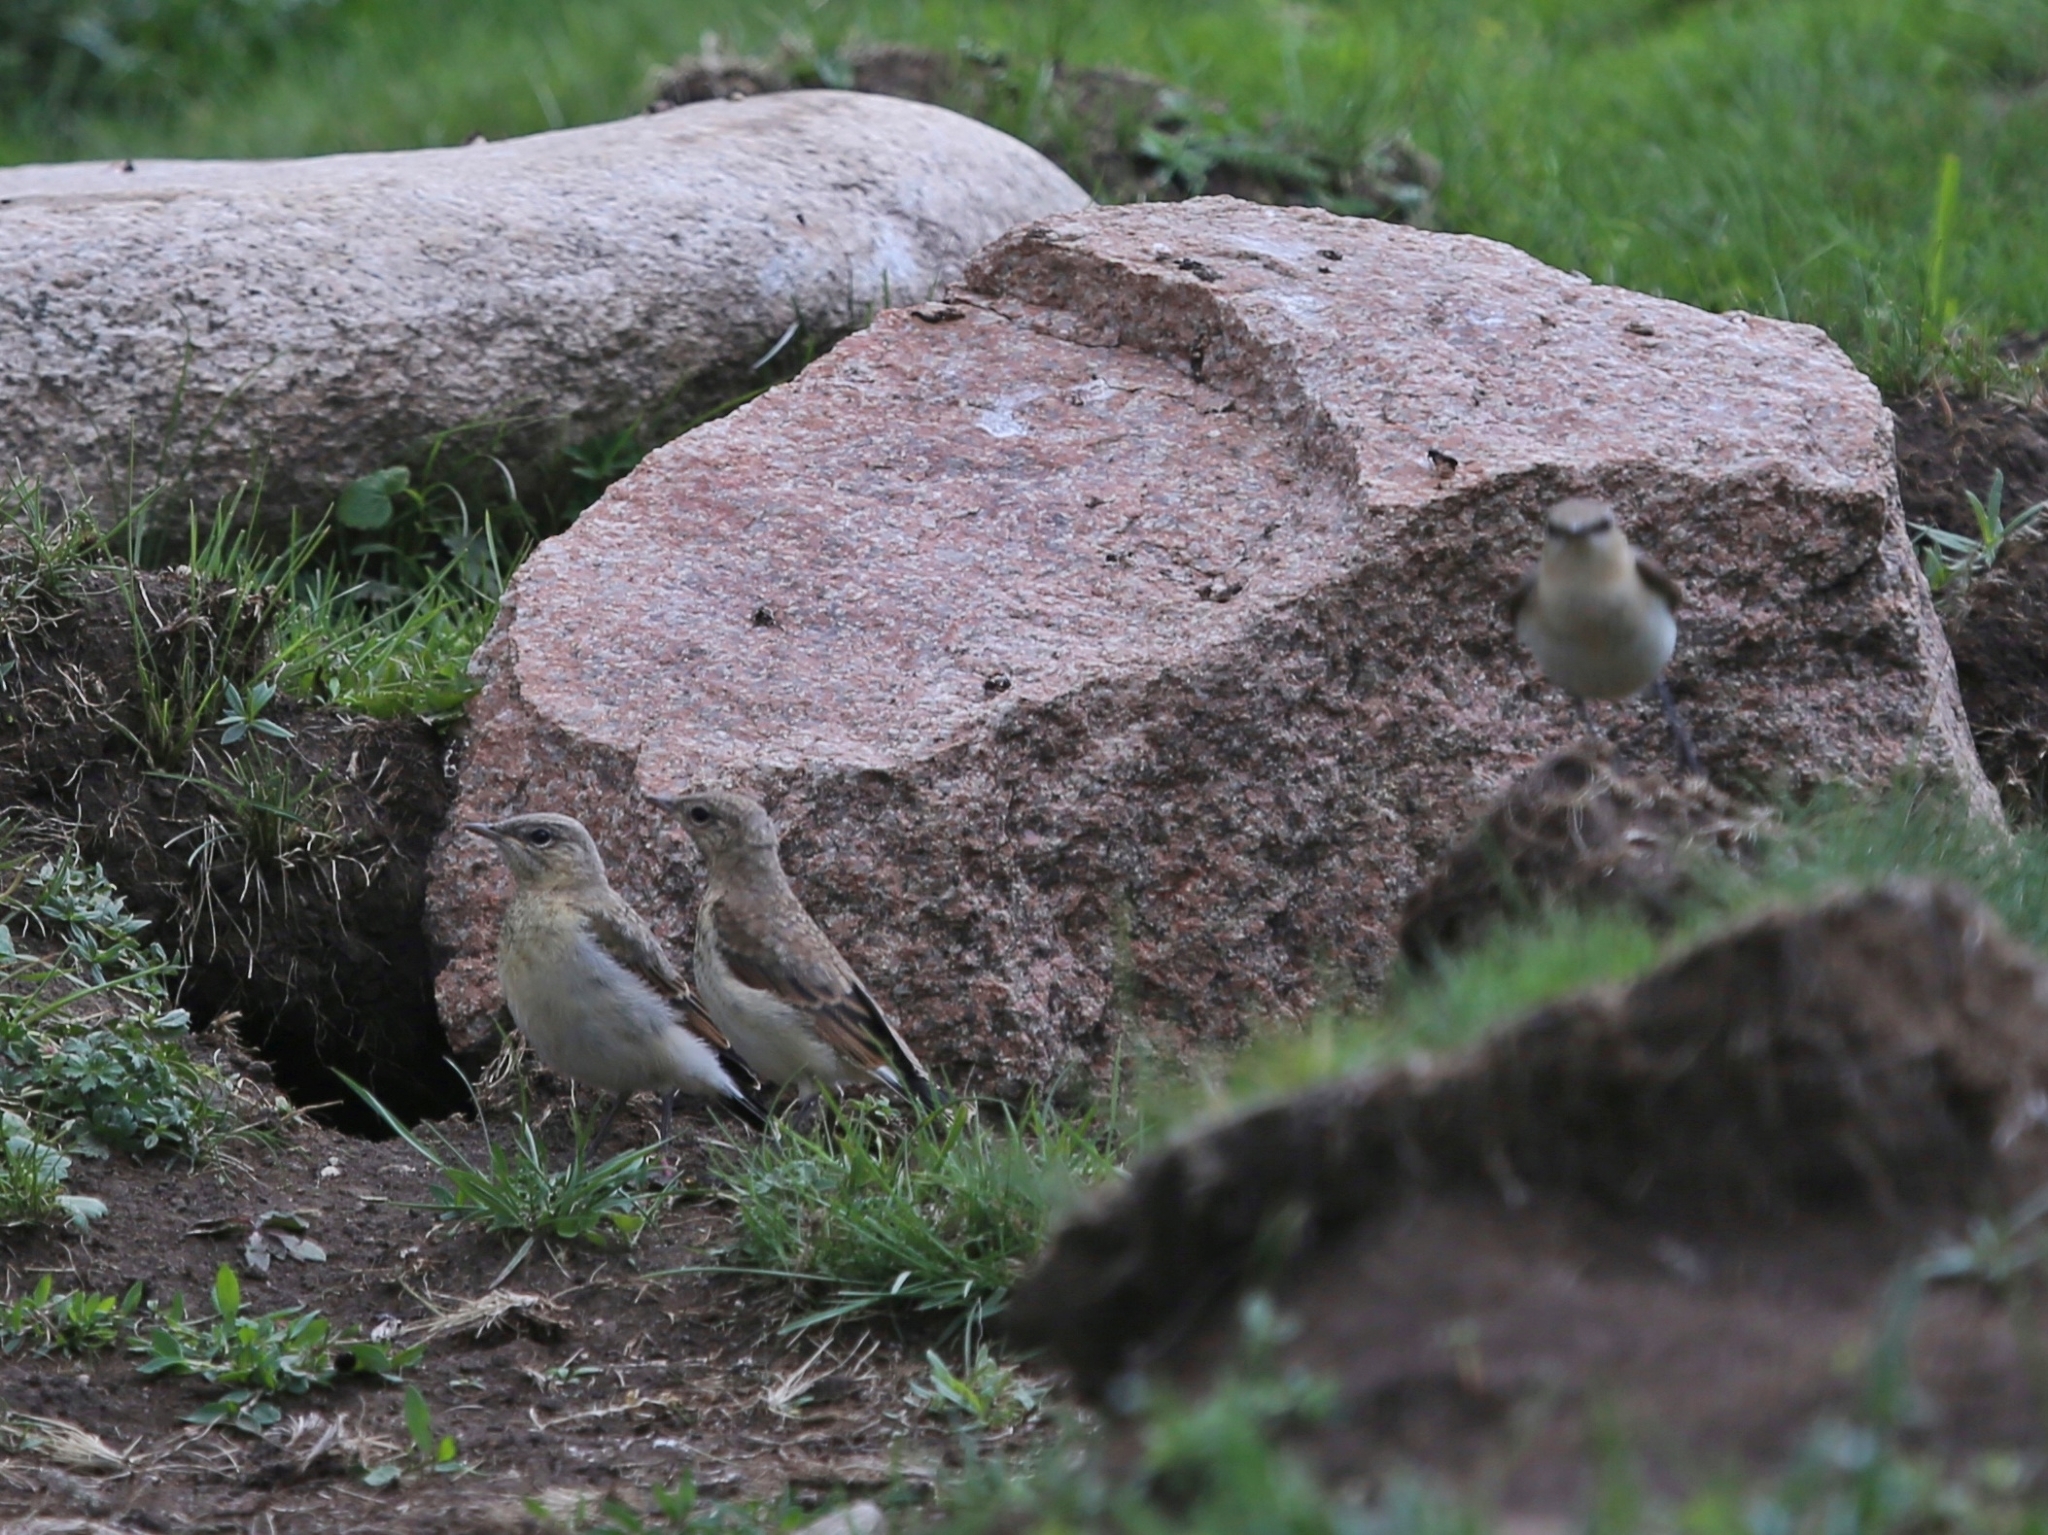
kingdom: Animalia
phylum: Chordata
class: Aves
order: Passeriformes
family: Muscicapidae
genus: Oenanthe
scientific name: Oenanthe isabellina
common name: Isabelline wheatear
